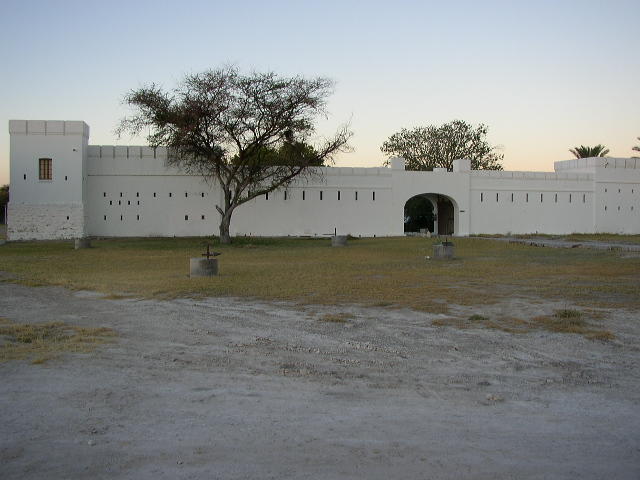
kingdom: Plantae
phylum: Tracheophyta
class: Magnoliopsida
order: Fabales
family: Fabaceae
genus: Vachellia
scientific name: Vachellia tortilis
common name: Umbrella thorn acacia
